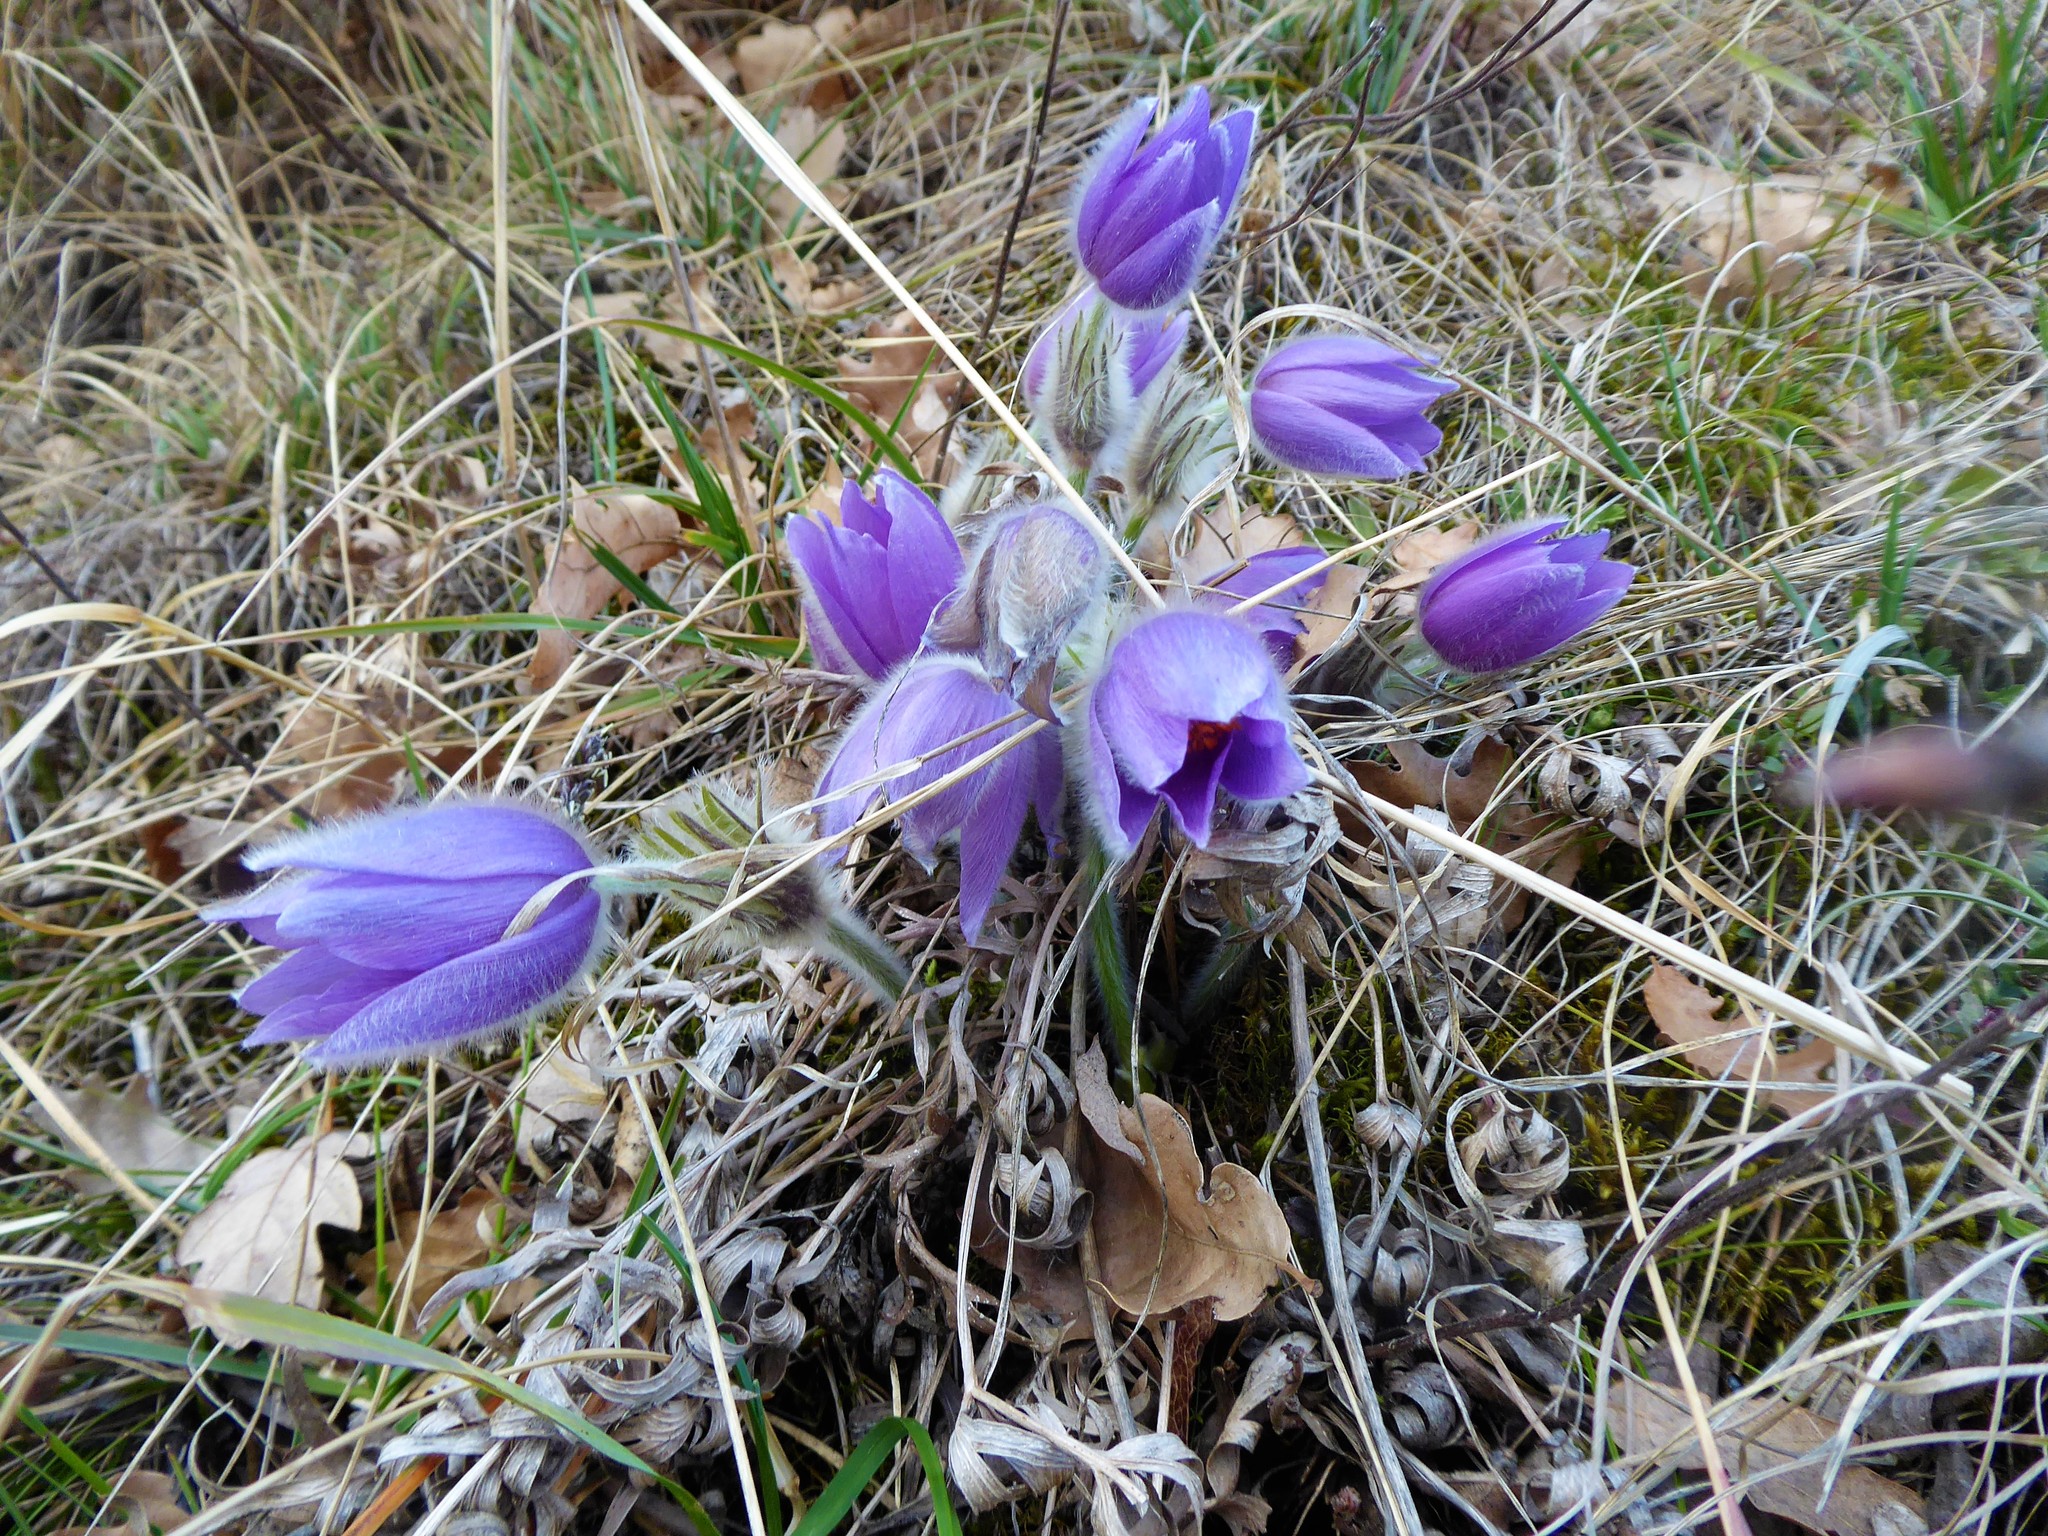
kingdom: Plantae
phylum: Tracheophyta
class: Magnoliopsida
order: Ranunculales
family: Ranunculaceae
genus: Pulsatilla
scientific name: Pulsatilla grandis
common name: Greater pasque flower
